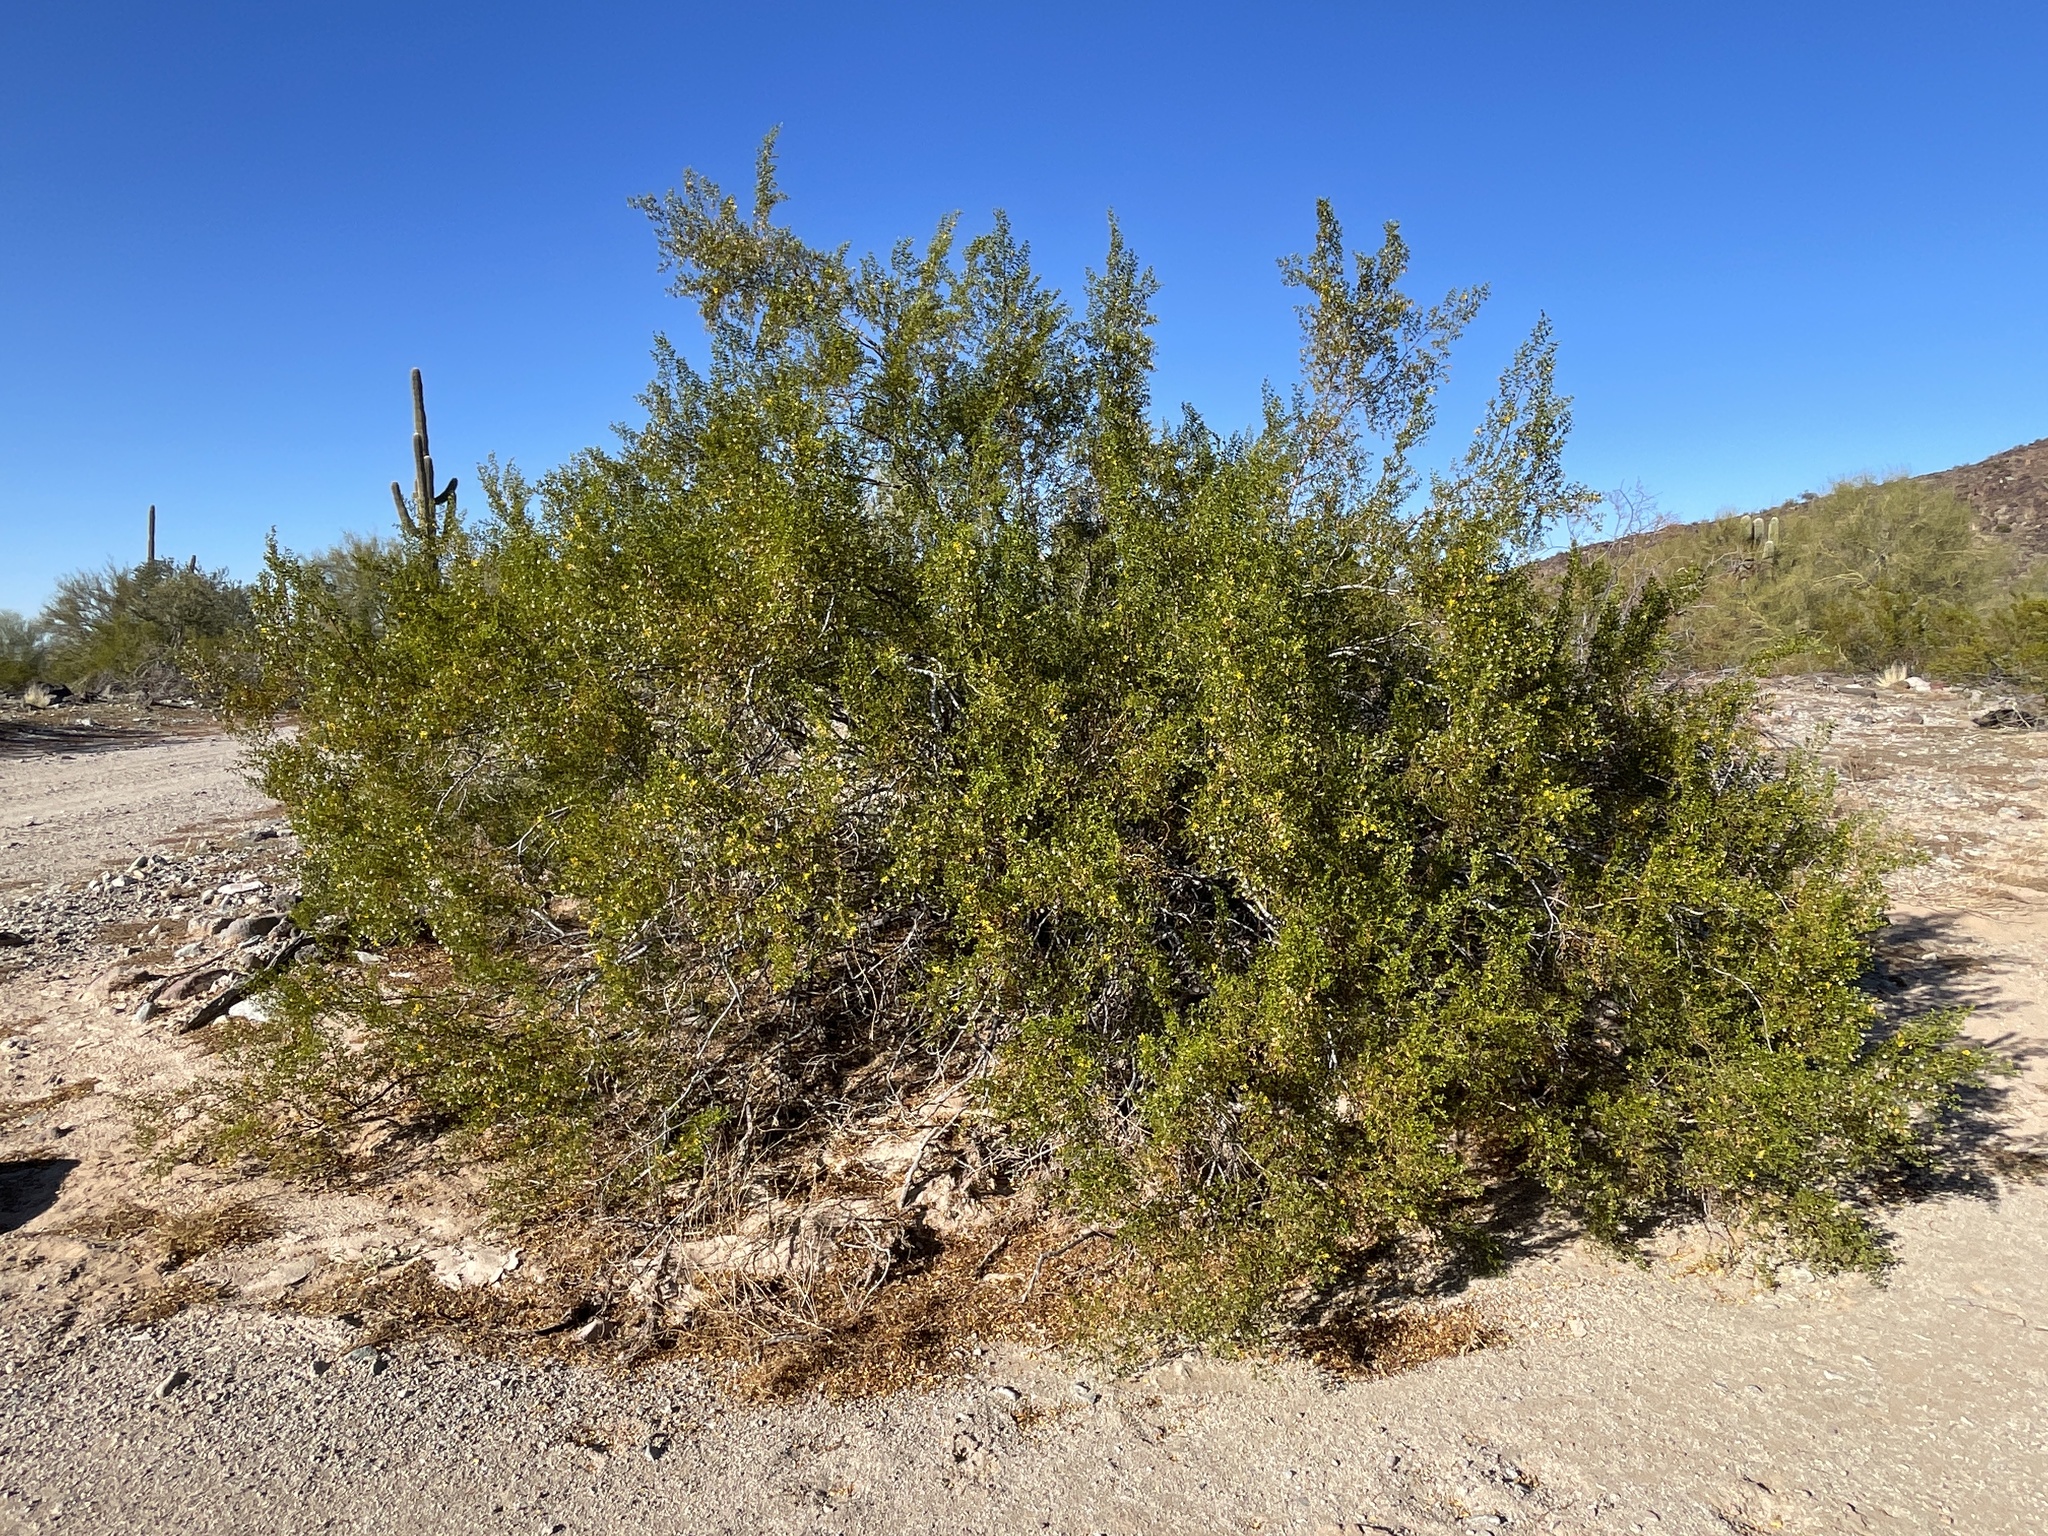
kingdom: Plantae
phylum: Tracheophyta
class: Magnoliopsida
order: Zygophyllales
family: Zygophyllaceae
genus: Larrea
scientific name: Larrea tridentata
